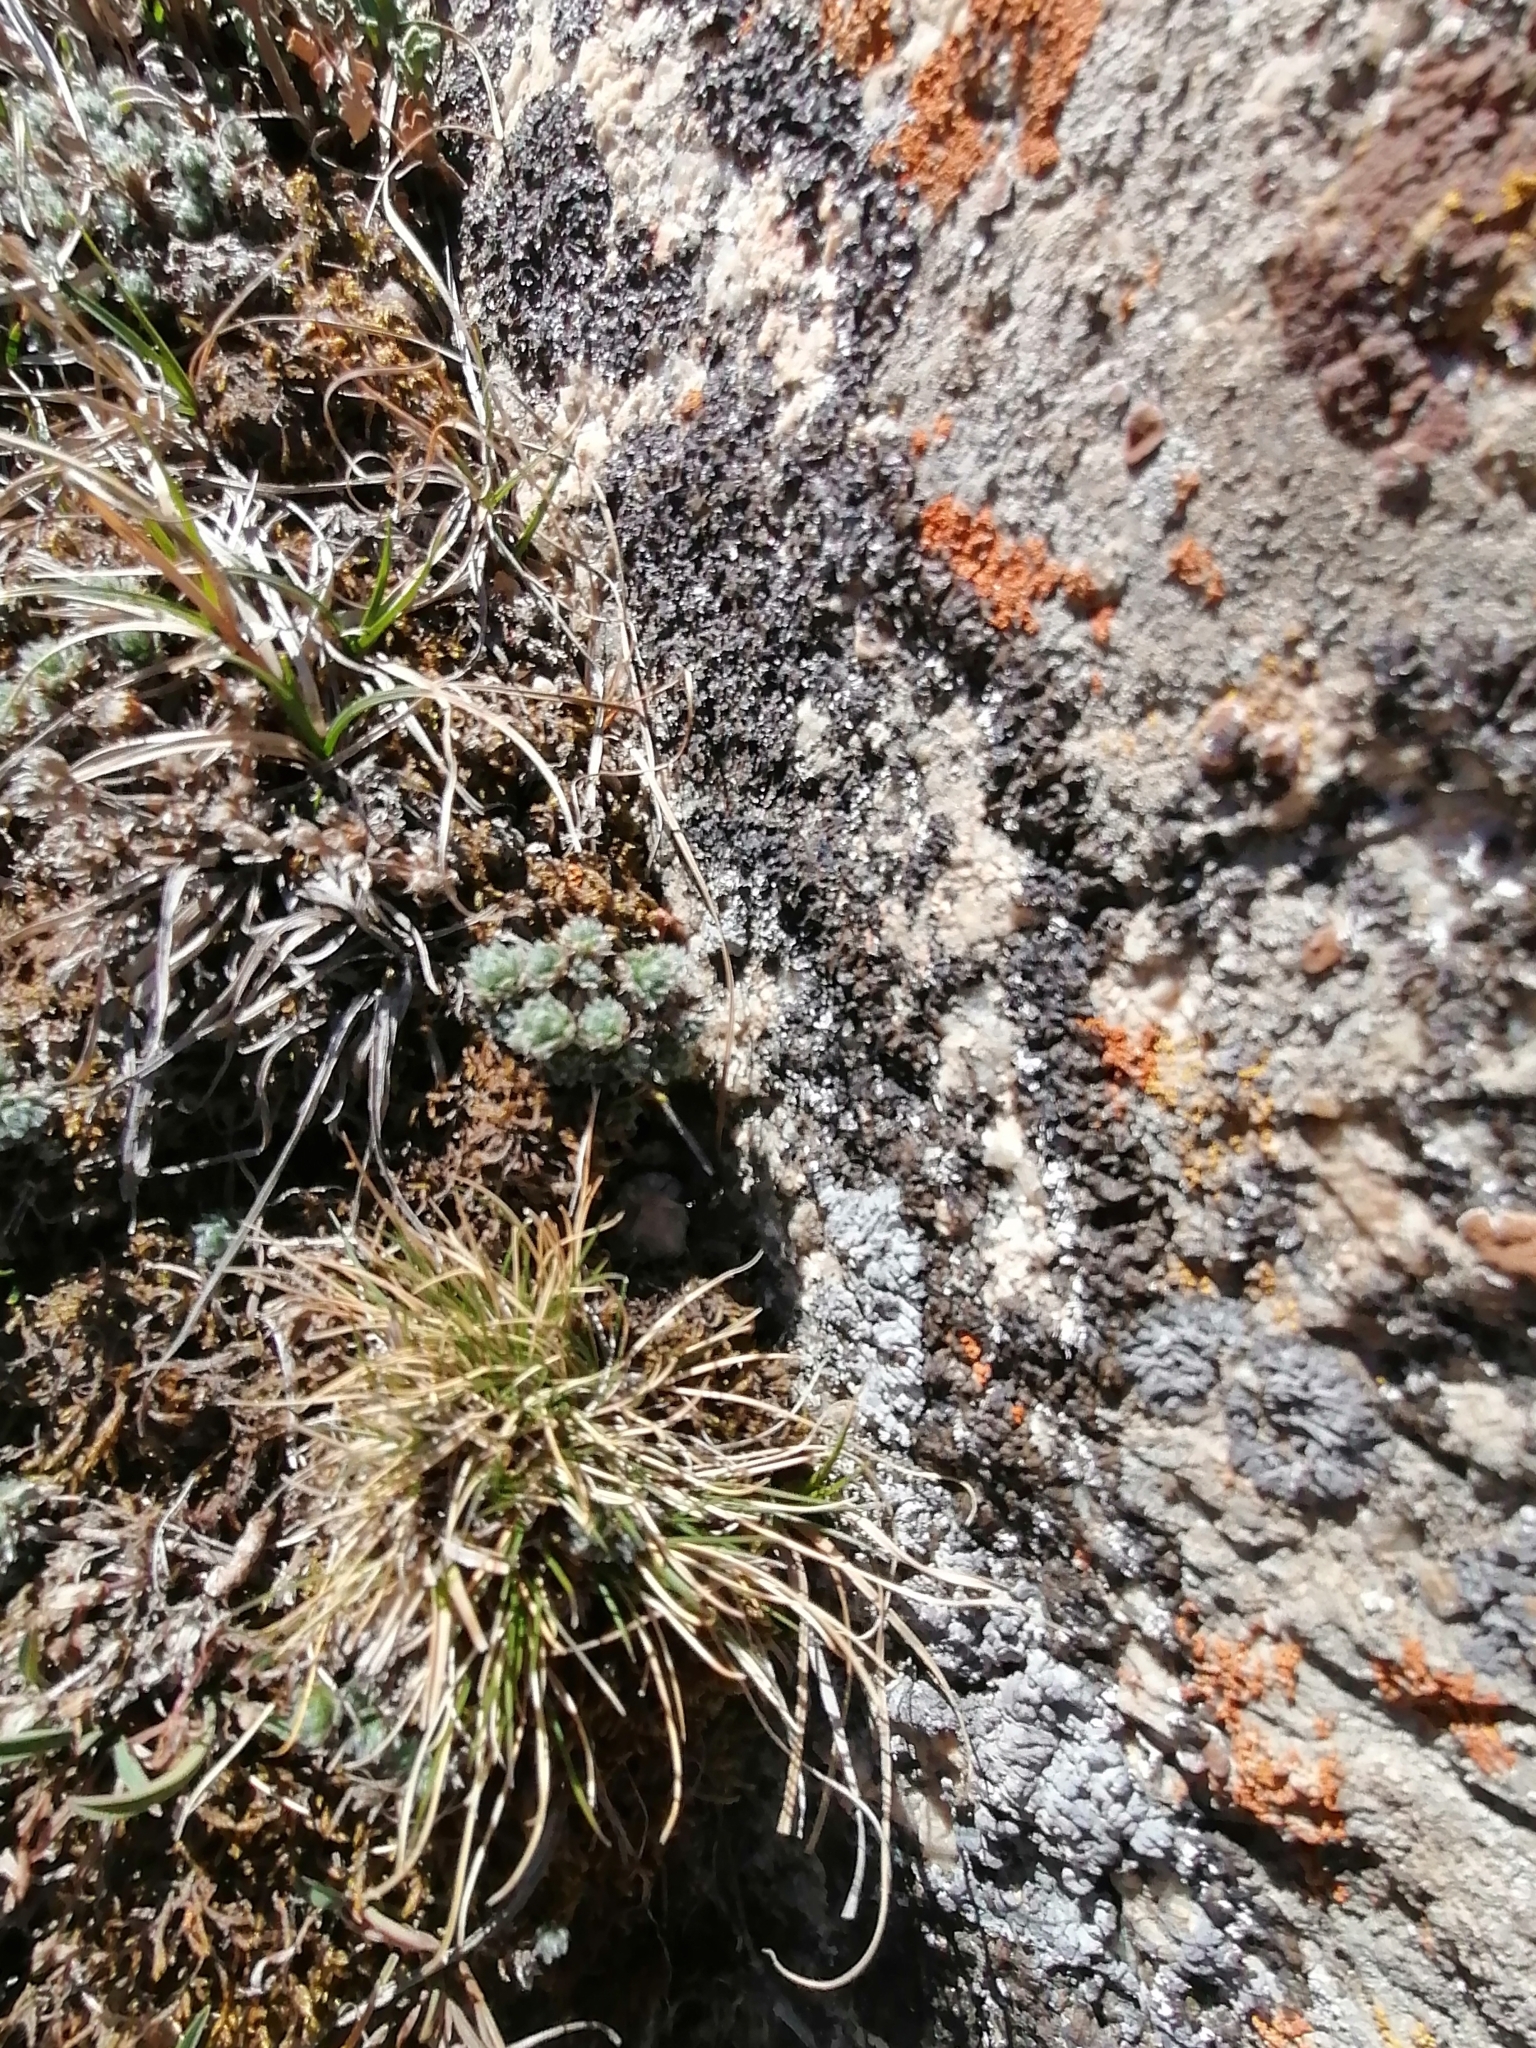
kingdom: Plantae
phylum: Tracheophyta
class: Magnoliopsida
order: Ericales
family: Primulaceae
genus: Androsace
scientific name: Androsace chamaejasme
